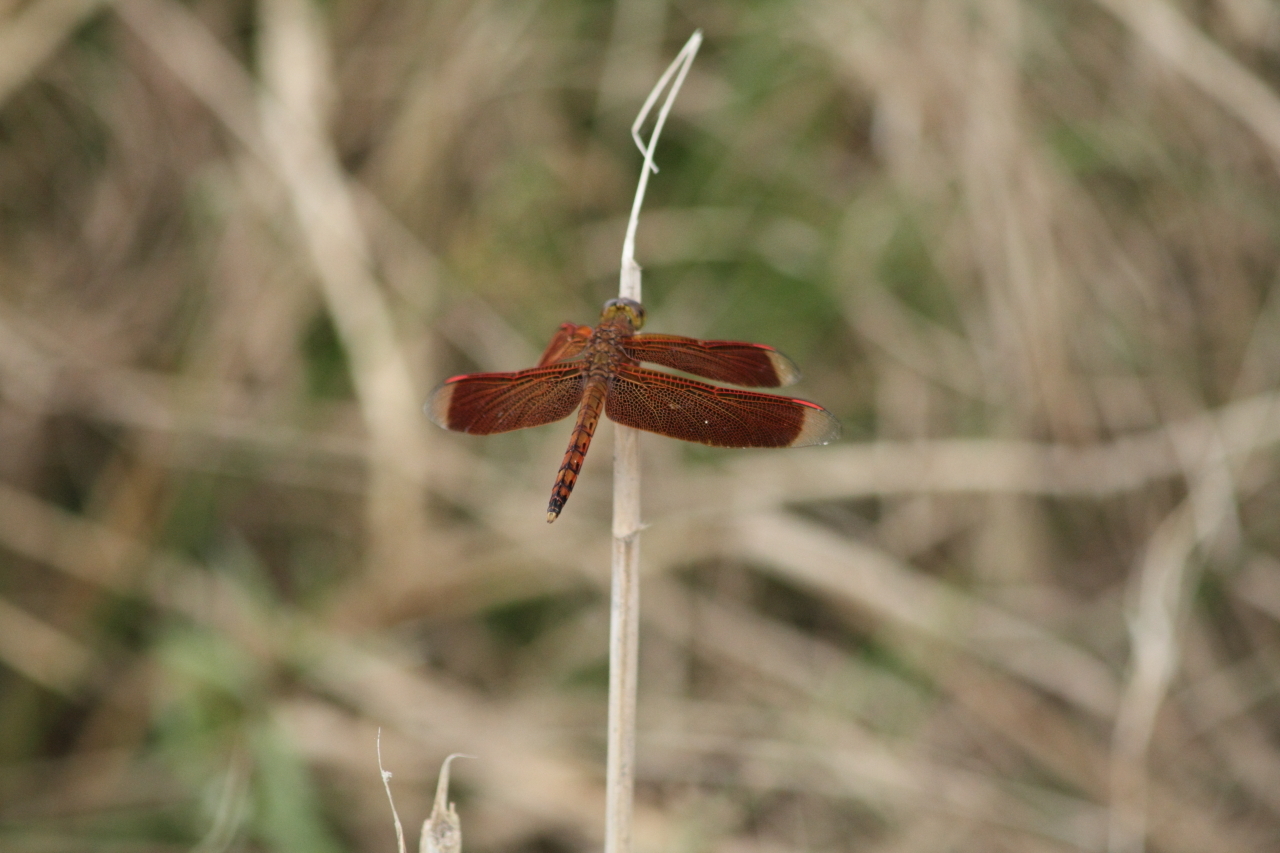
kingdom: Animalia
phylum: Arthropoda
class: Insecta
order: Odonata
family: Libellulidae
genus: Neurothemis
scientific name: Neurothemis terminata
